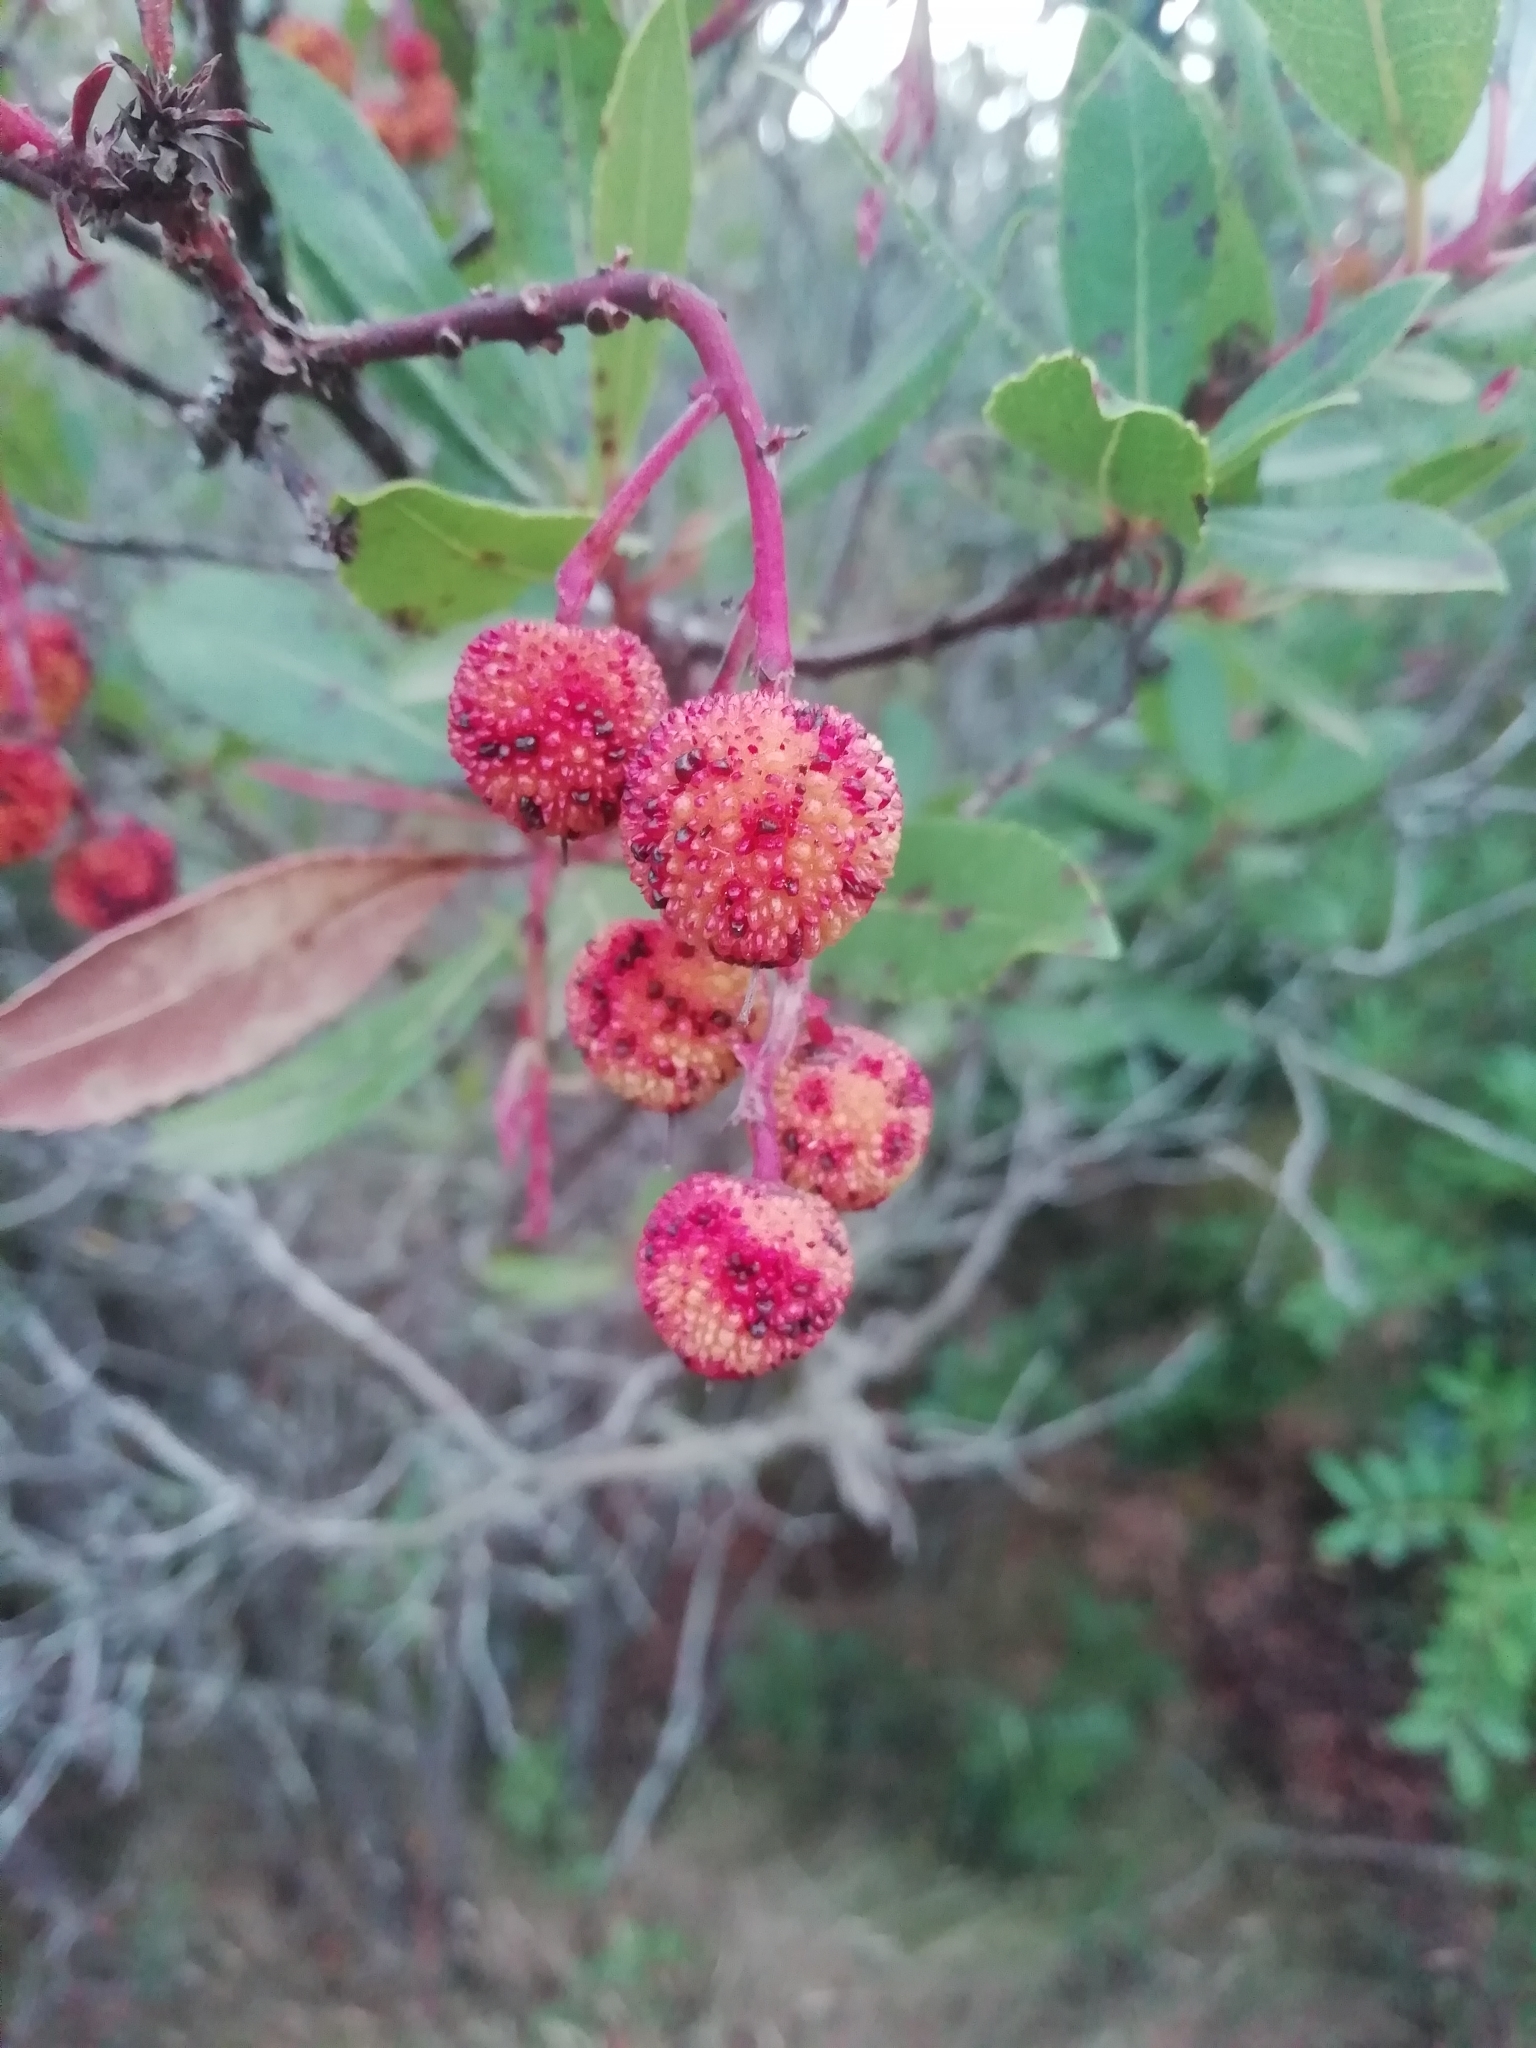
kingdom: Plantae
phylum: Tracheophyta
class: Magnoliopsida
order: Ericales
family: Ericaceae
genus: Arbutus
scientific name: Arbutus unedo
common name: Strawberry-tree
